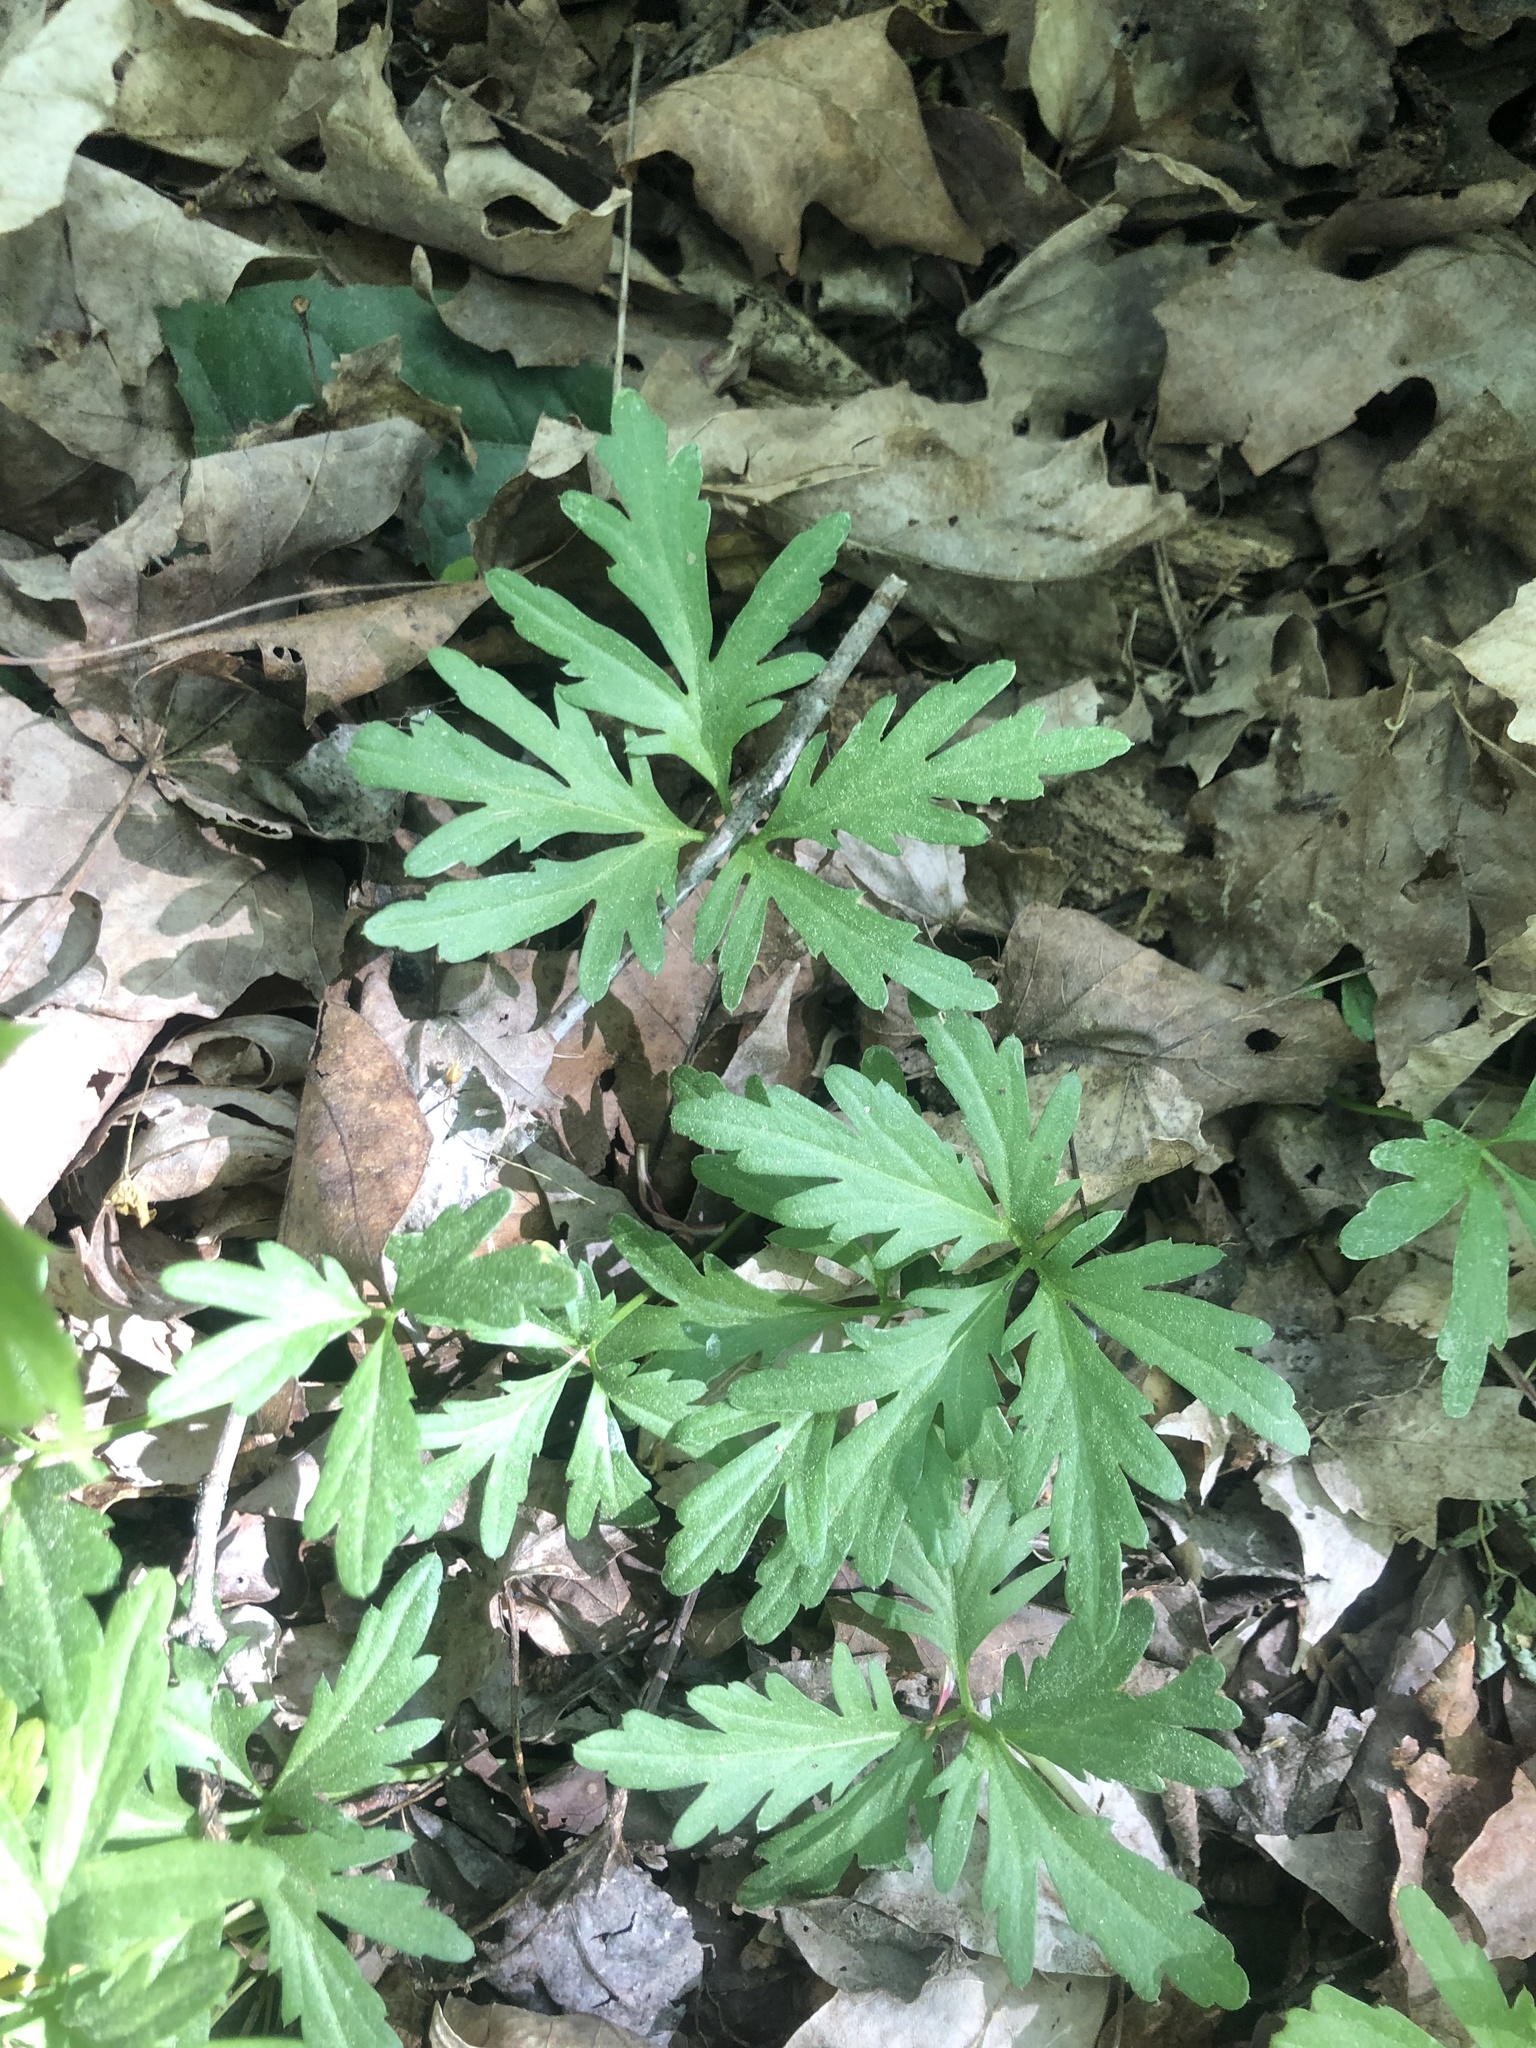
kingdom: Plantae
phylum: Tracheophyta
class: Magnoliopsida
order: Brassicales
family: Brassicaceae
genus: Cardamine
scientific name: Cardamine concatenata
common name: Cut-leaf toothcup
